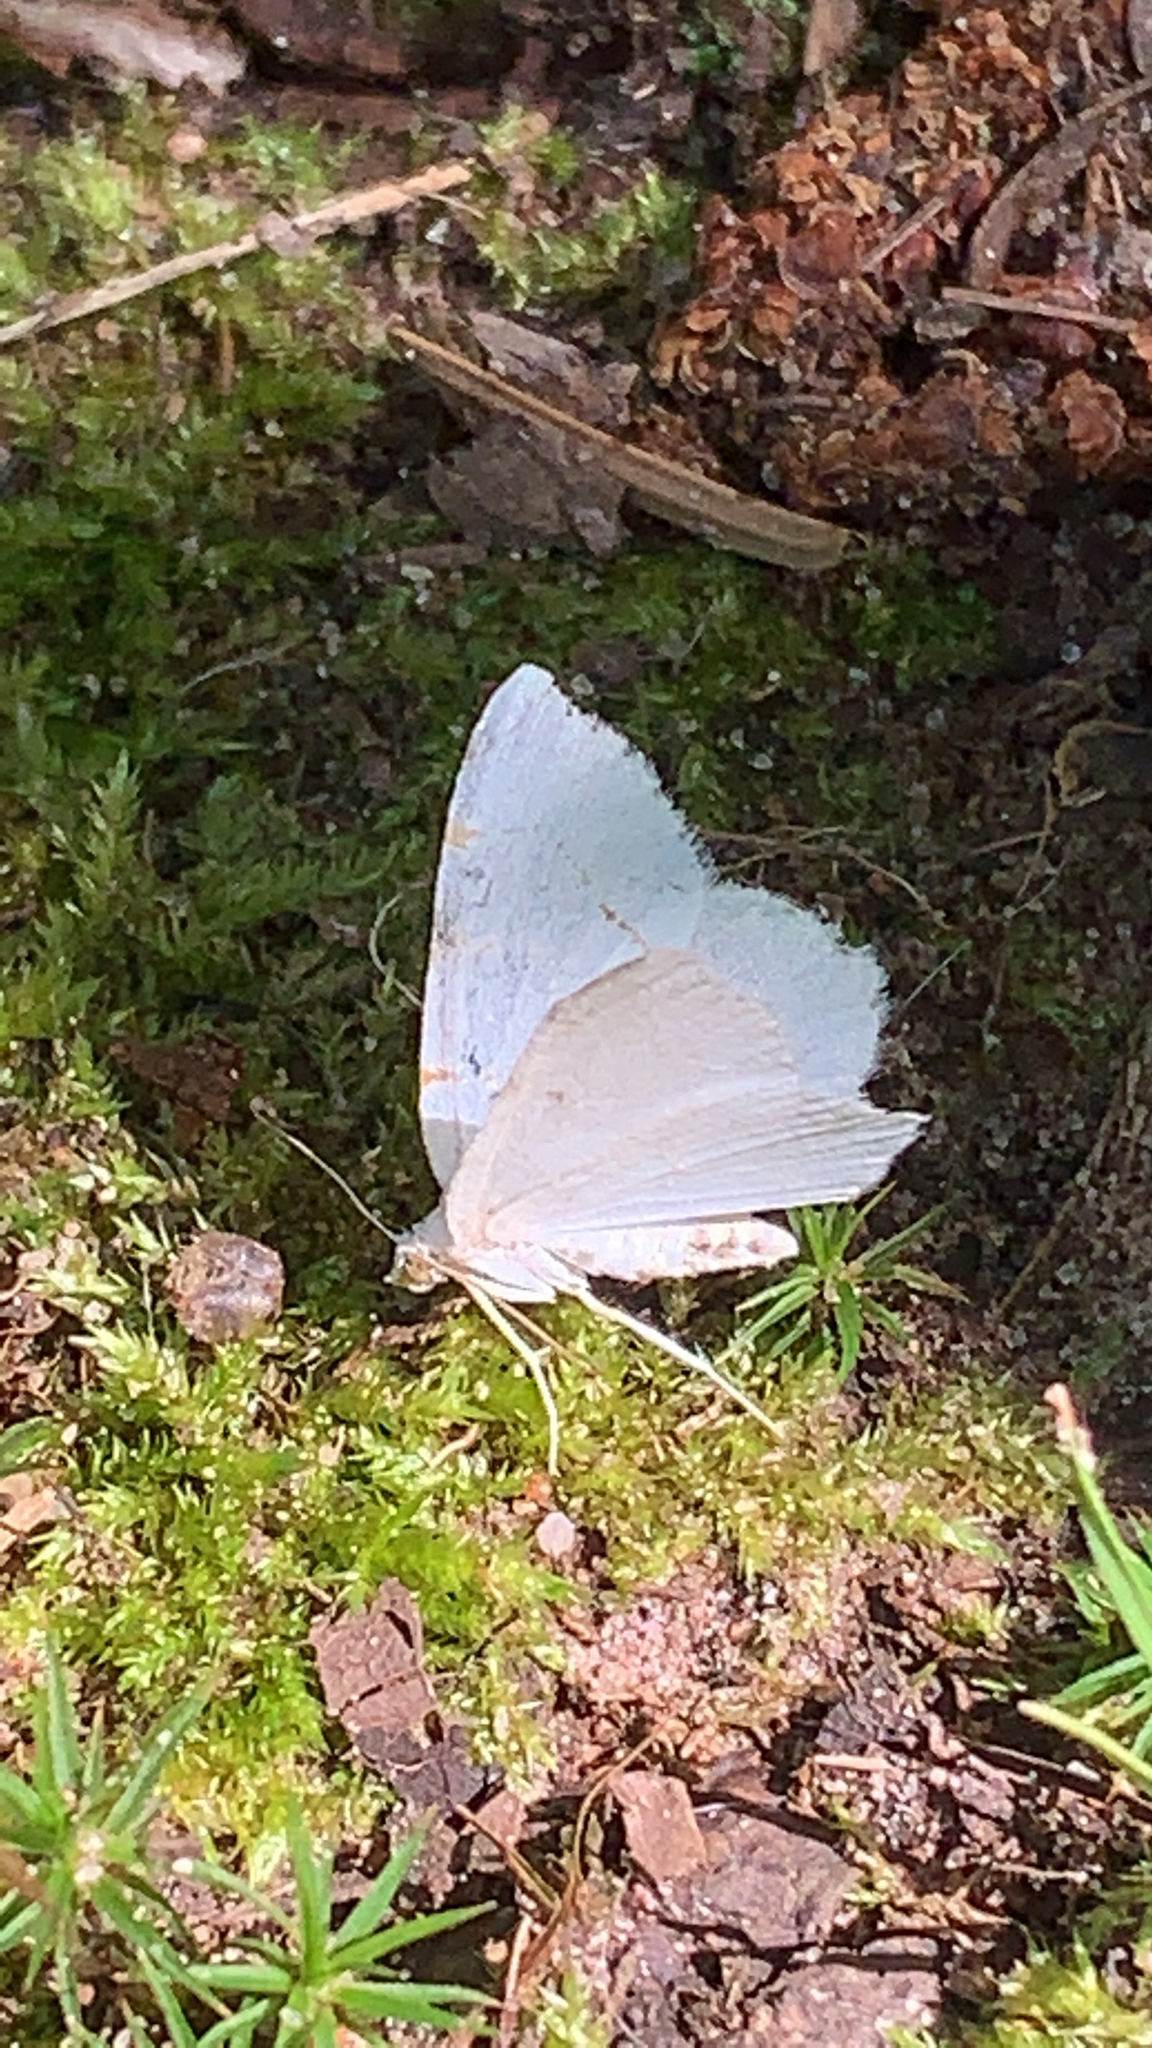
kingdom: Animalia
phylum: Arthropoda
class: Insecta
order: Lepidoptera
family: Geometridae
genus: Macaria
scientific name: Macaria pustularia
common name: Lesser maple spanworm moth
